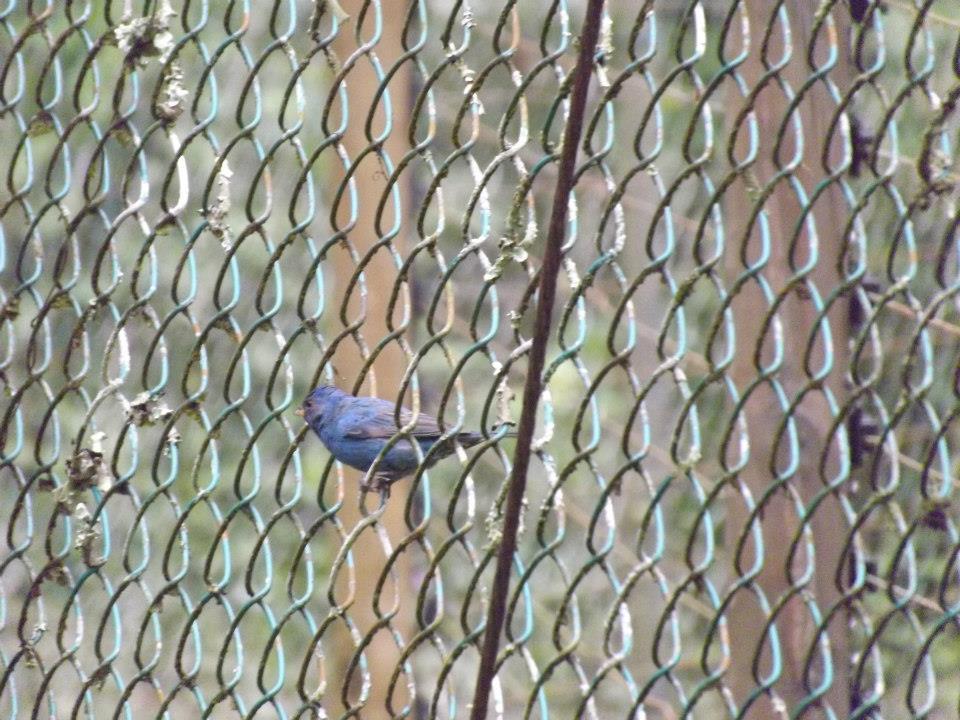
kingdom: Animalia
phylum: Chordata
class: Aves
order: Passeriformes
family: Cardinalidae
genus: Passerina
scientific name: Passerina caerulea
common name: Blue grosbeak
